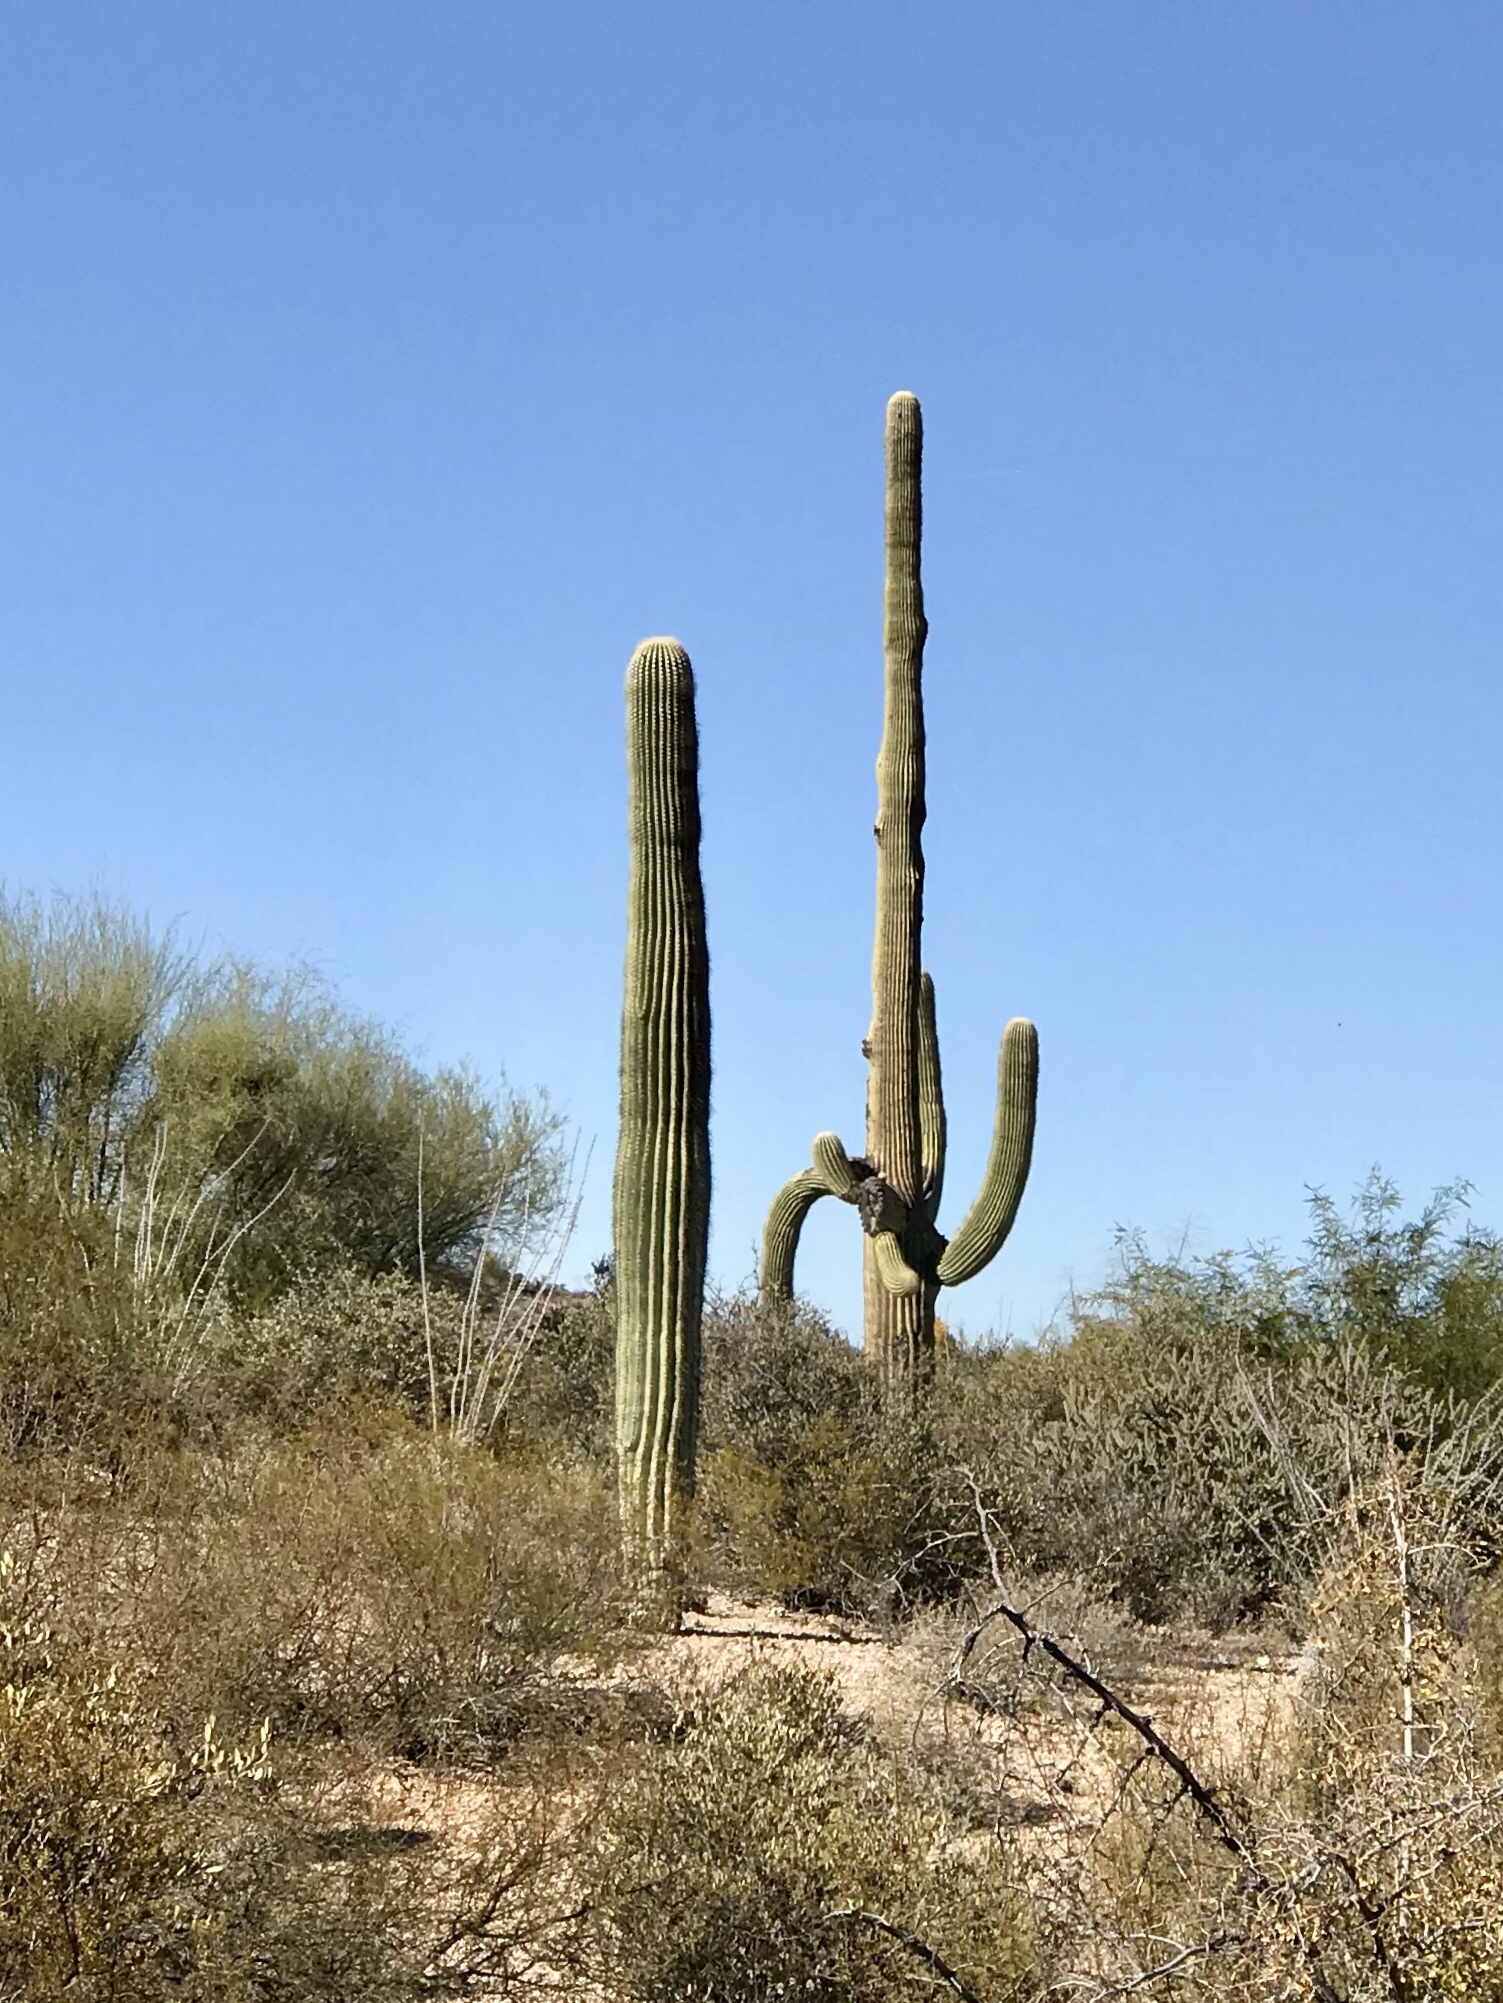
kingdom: Plantae
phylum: Tracheophyta
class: Magnoliopsida
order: Caryophyllales
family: Cactaceae
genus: Carnegiea
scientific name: Carnegiea gigantea
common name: Saguaro
